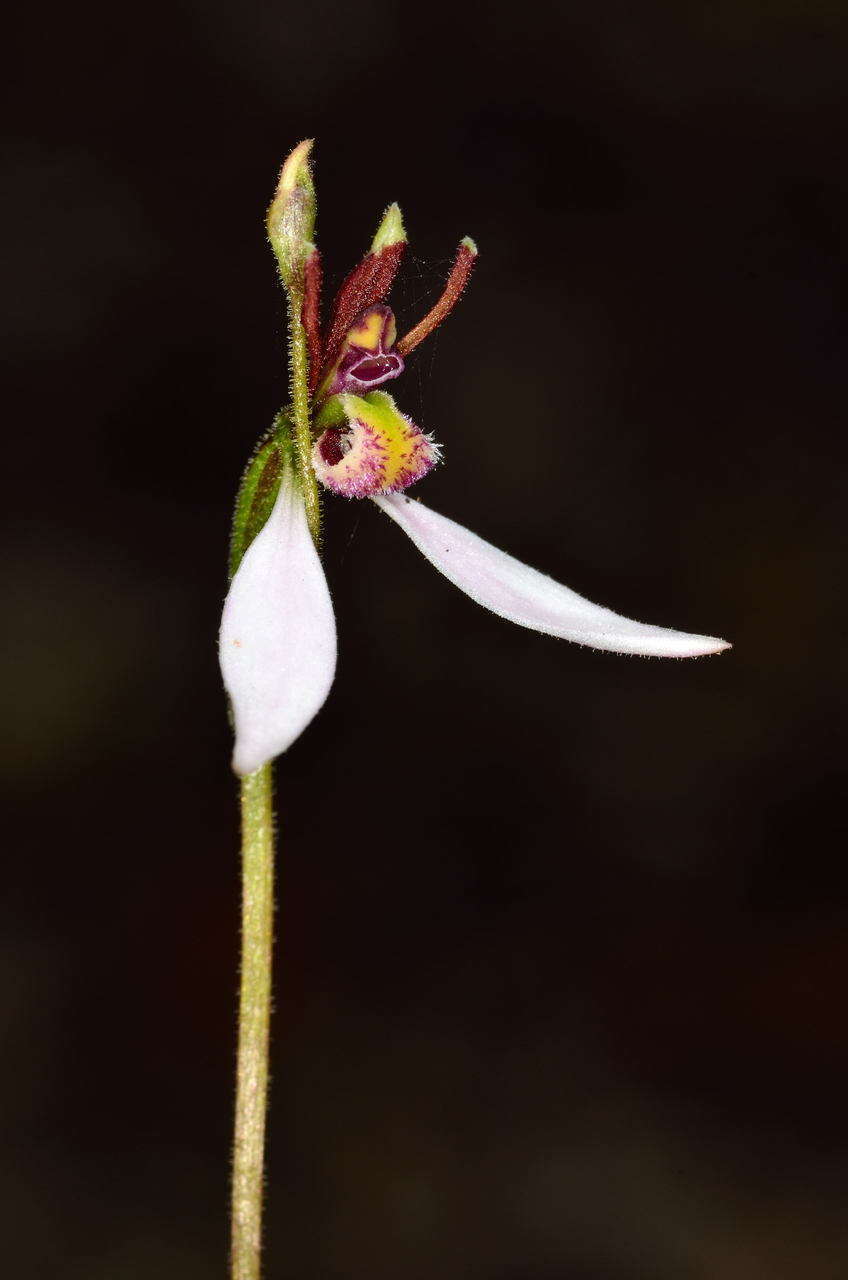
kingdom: Plantae
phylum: Tracheophyta
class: Liliopsida
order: Asparagales
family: Orchidaceae
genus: Eriochilus
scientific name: Eriochilus cucullatus
